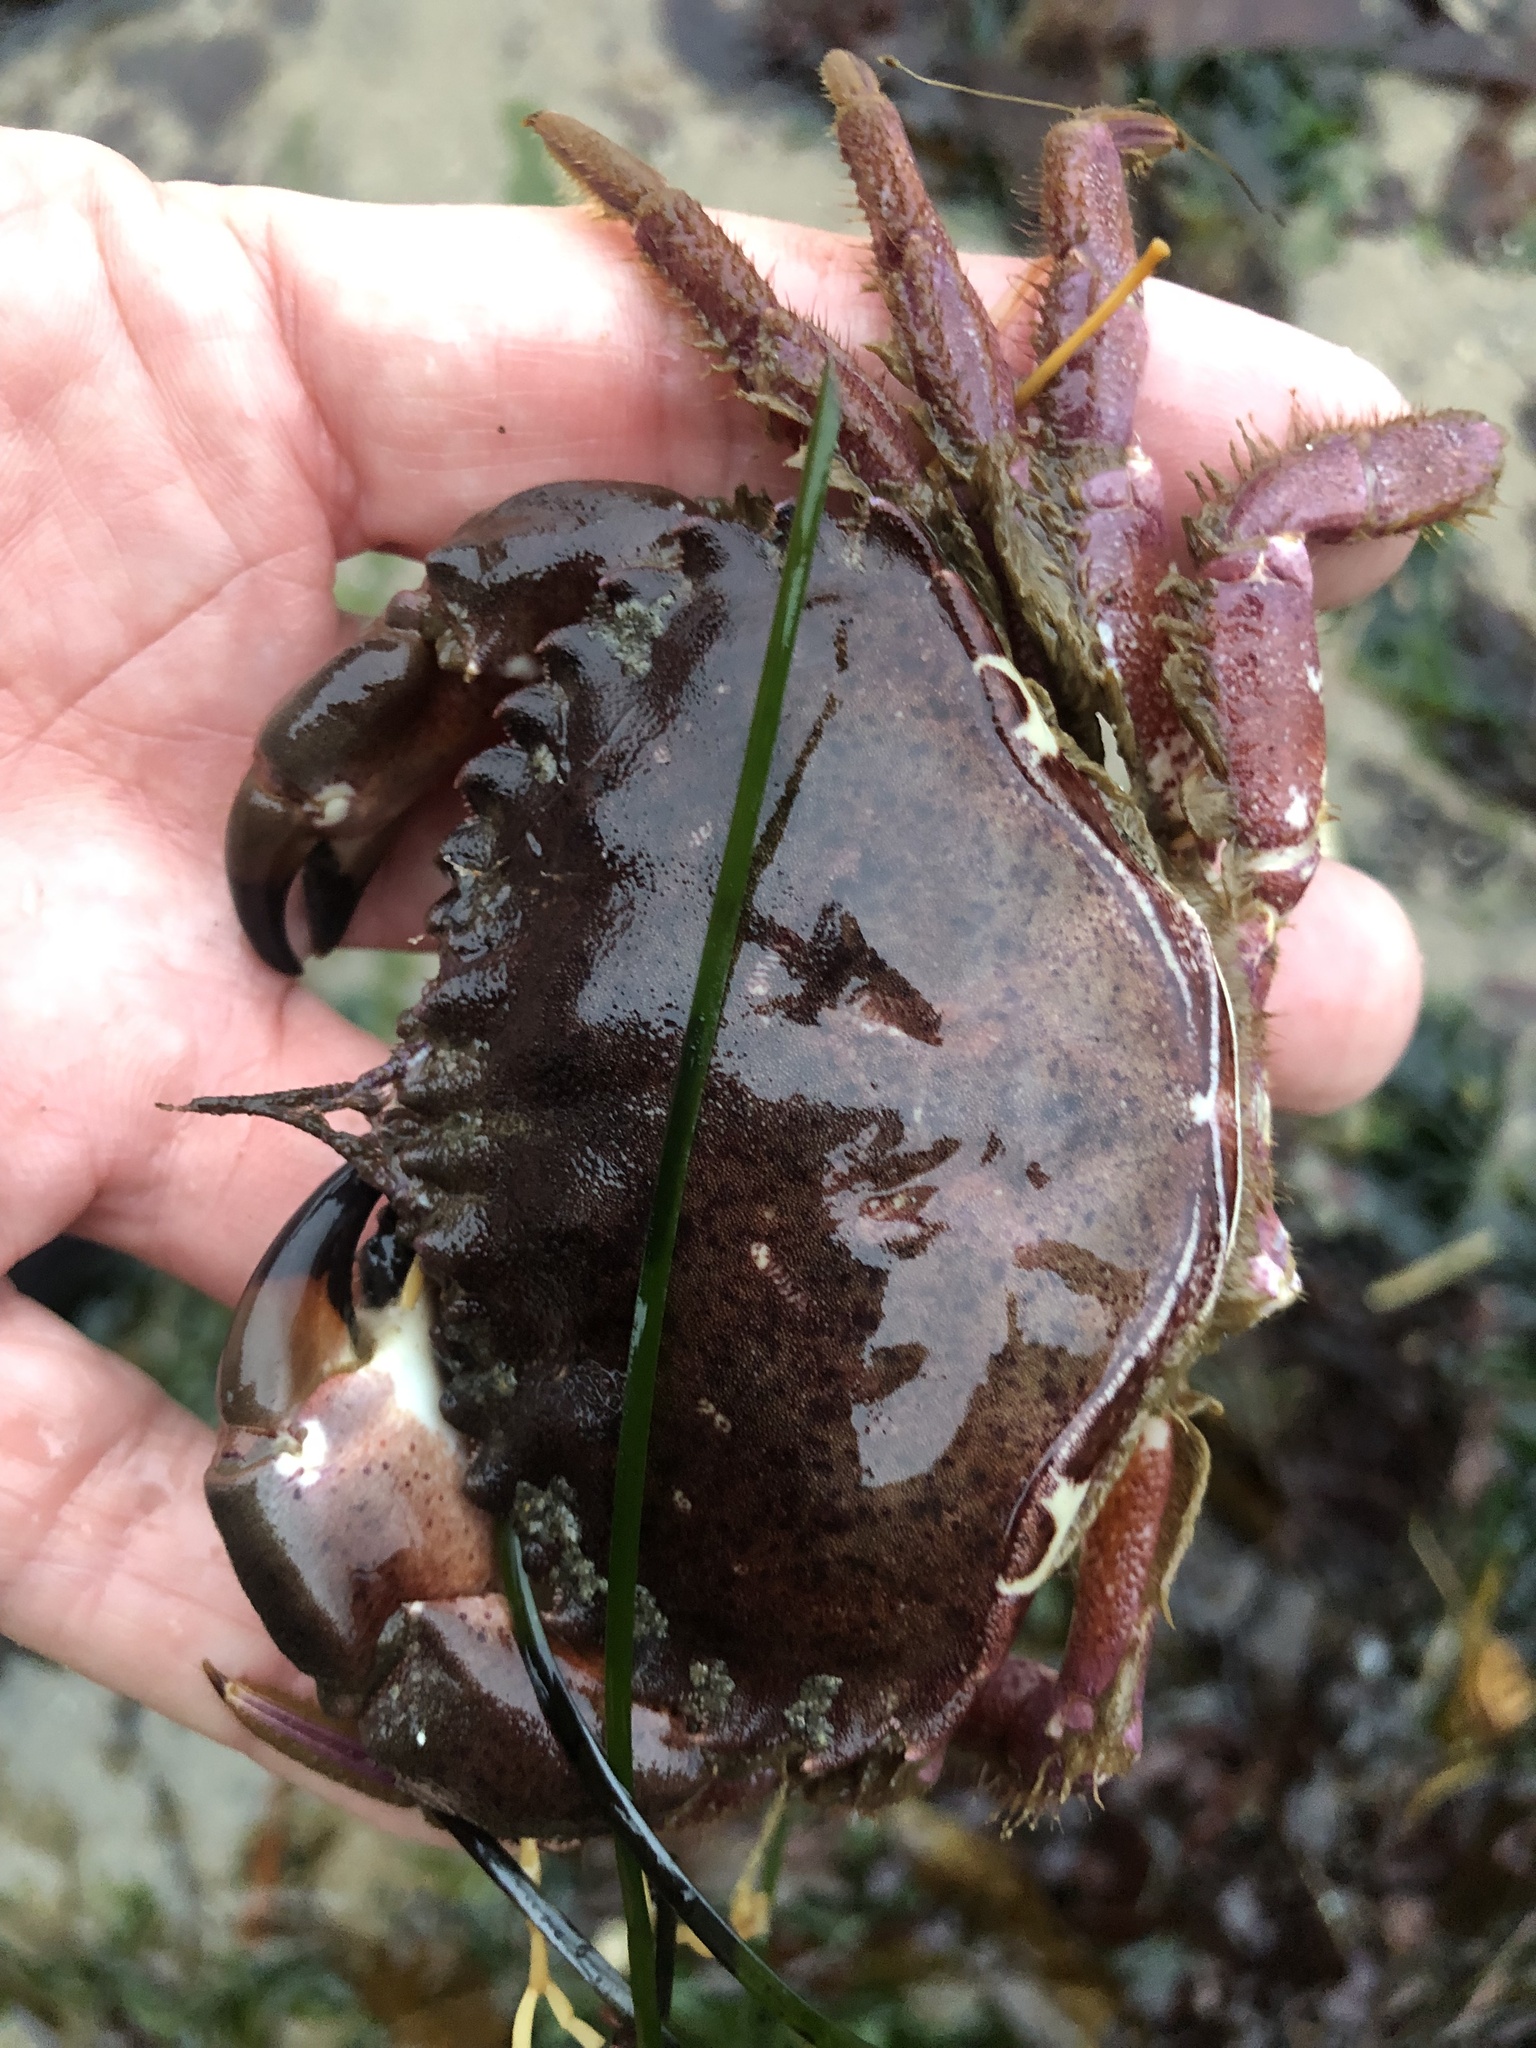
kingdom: Animalia
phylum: Arthropoda
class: Malacostraca
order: Decapoda
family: Cancridae
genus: Romaleon
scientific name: Romaleon antennarium
